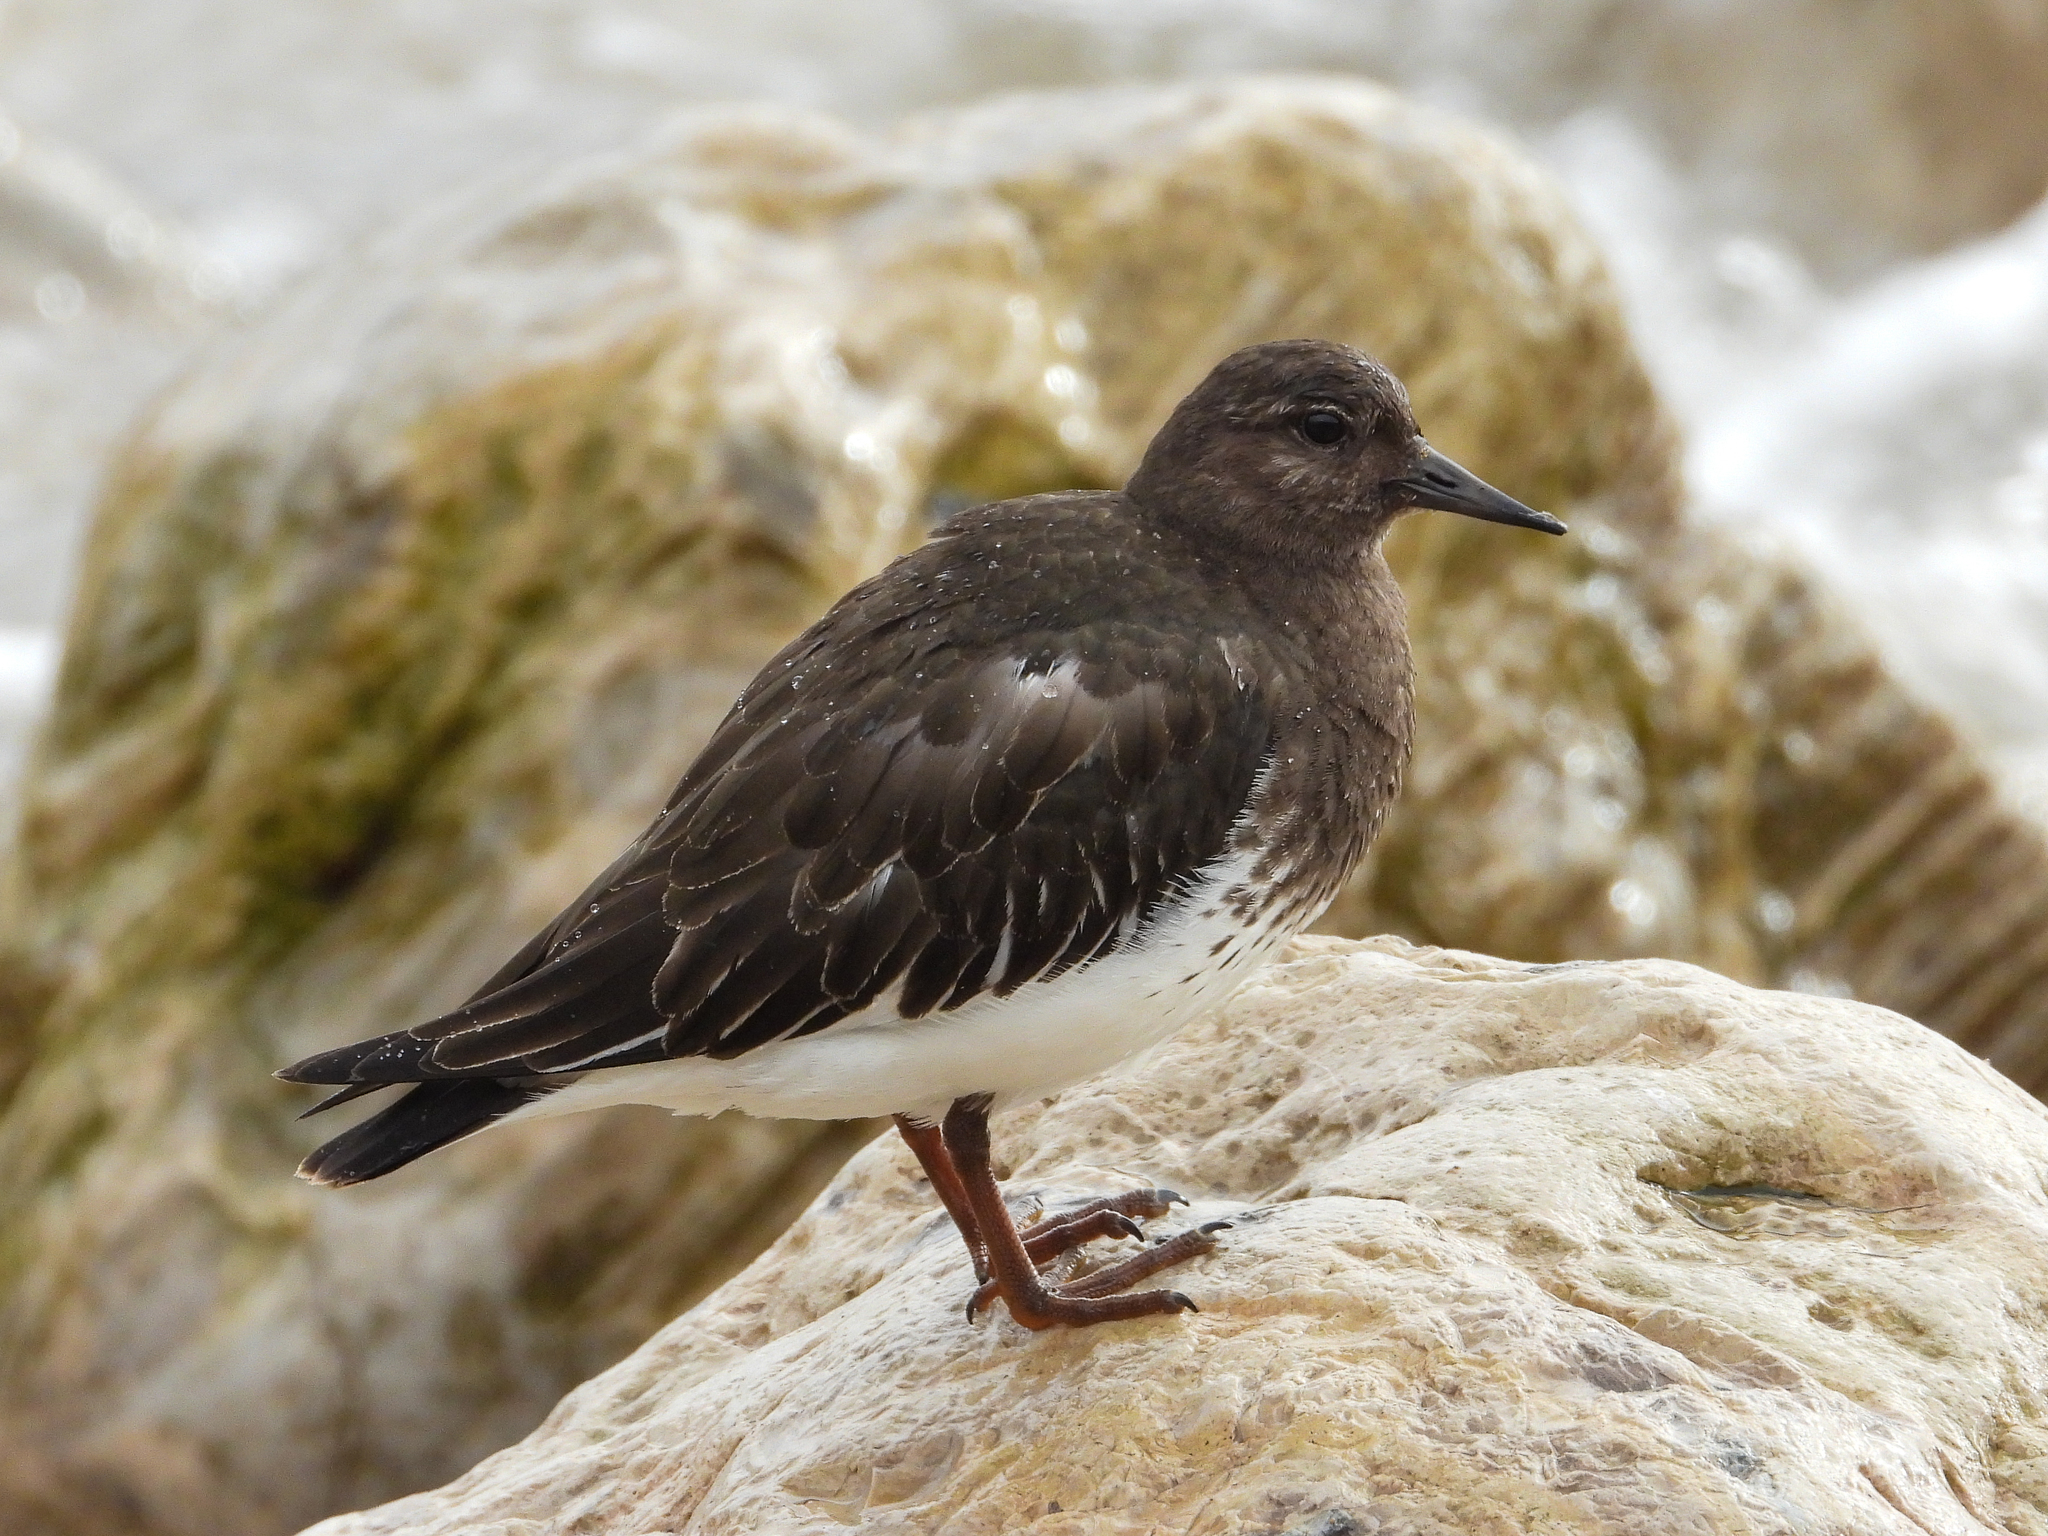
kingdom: Animalia
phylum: Chordata
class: Aves
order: Charadriiformes
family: Scolopacidae
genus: Arenaria
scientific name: Arenaria melanocephala
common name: Black turnstone
